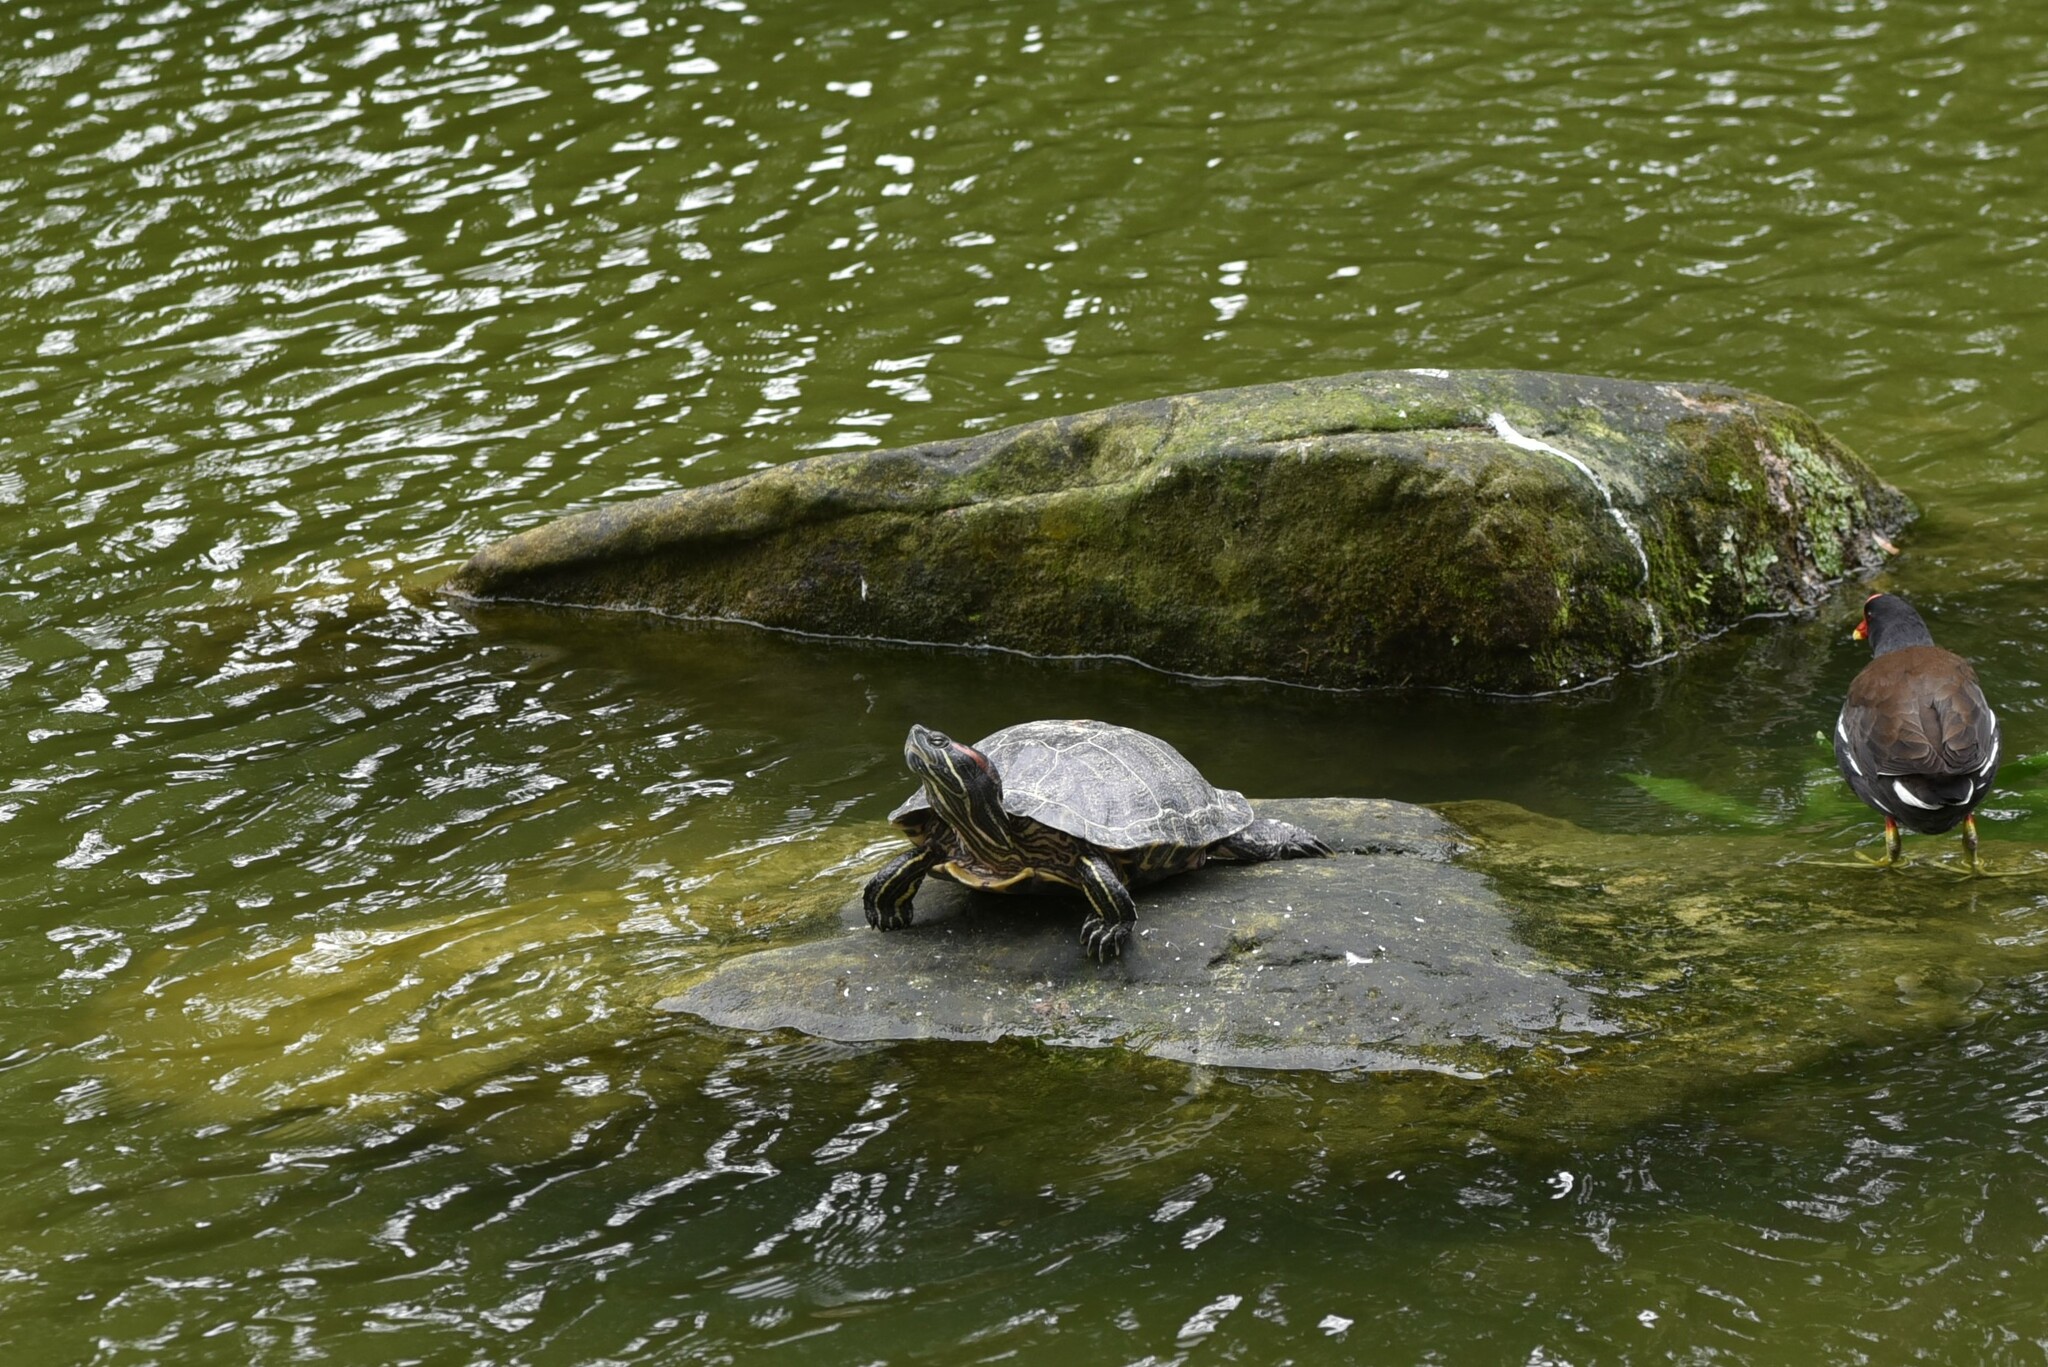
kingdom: Animalia
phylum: Chordata
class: Testudines
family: Emydidae
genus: Trachemys
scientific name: Trachemys scripta
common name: Slider
